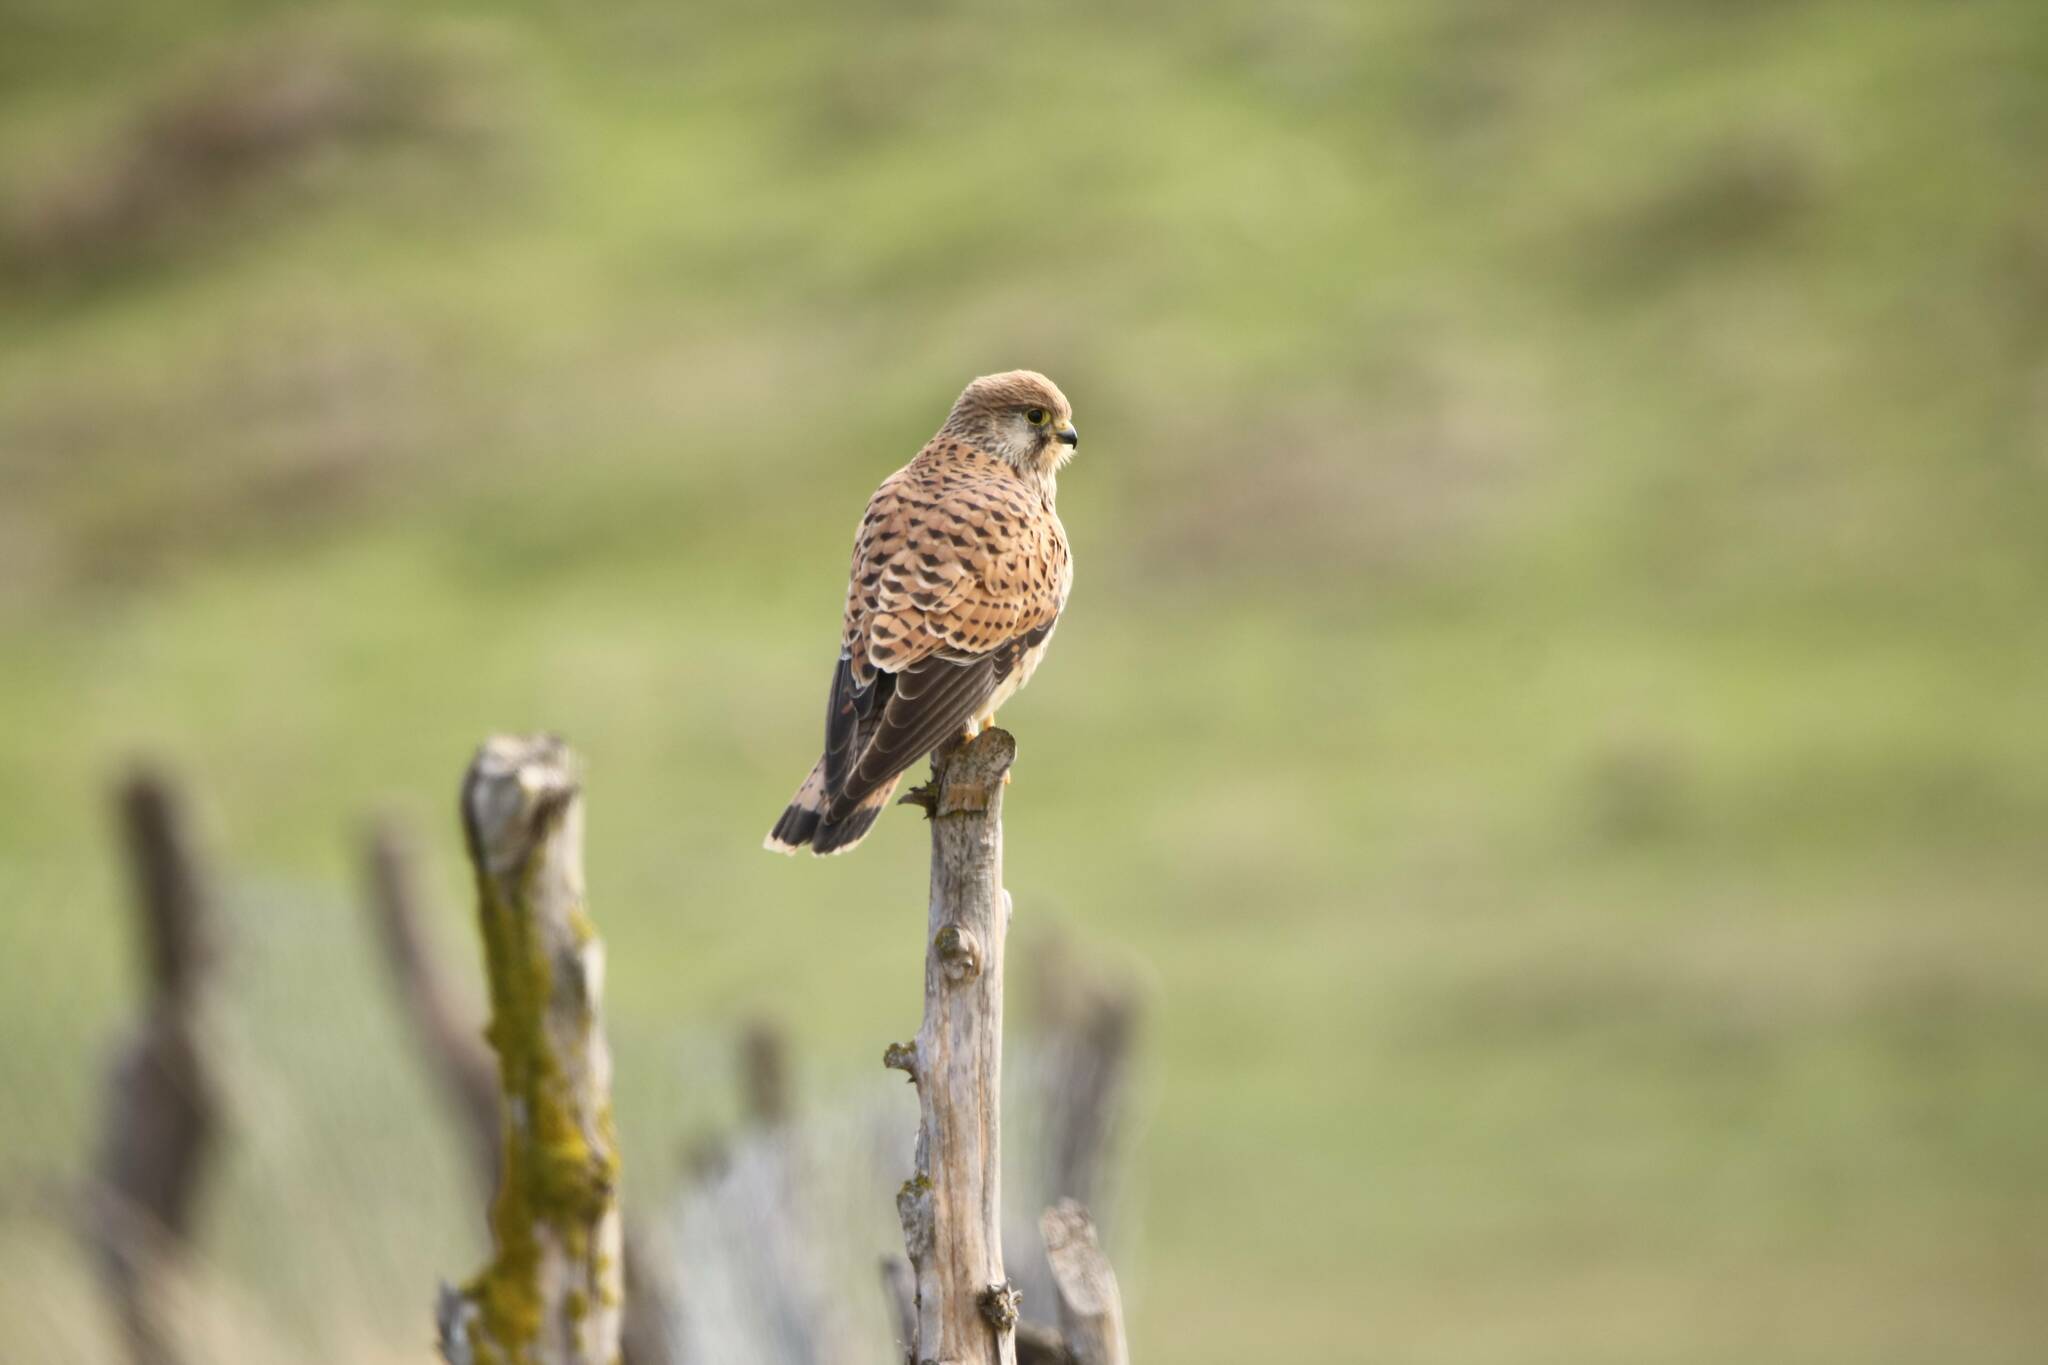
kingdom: Animalia
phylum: Chordata
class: Aves
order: Falconiformes
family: Falconidae
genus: Falco
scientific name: Falco tinnunculus
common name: Common kestrel
